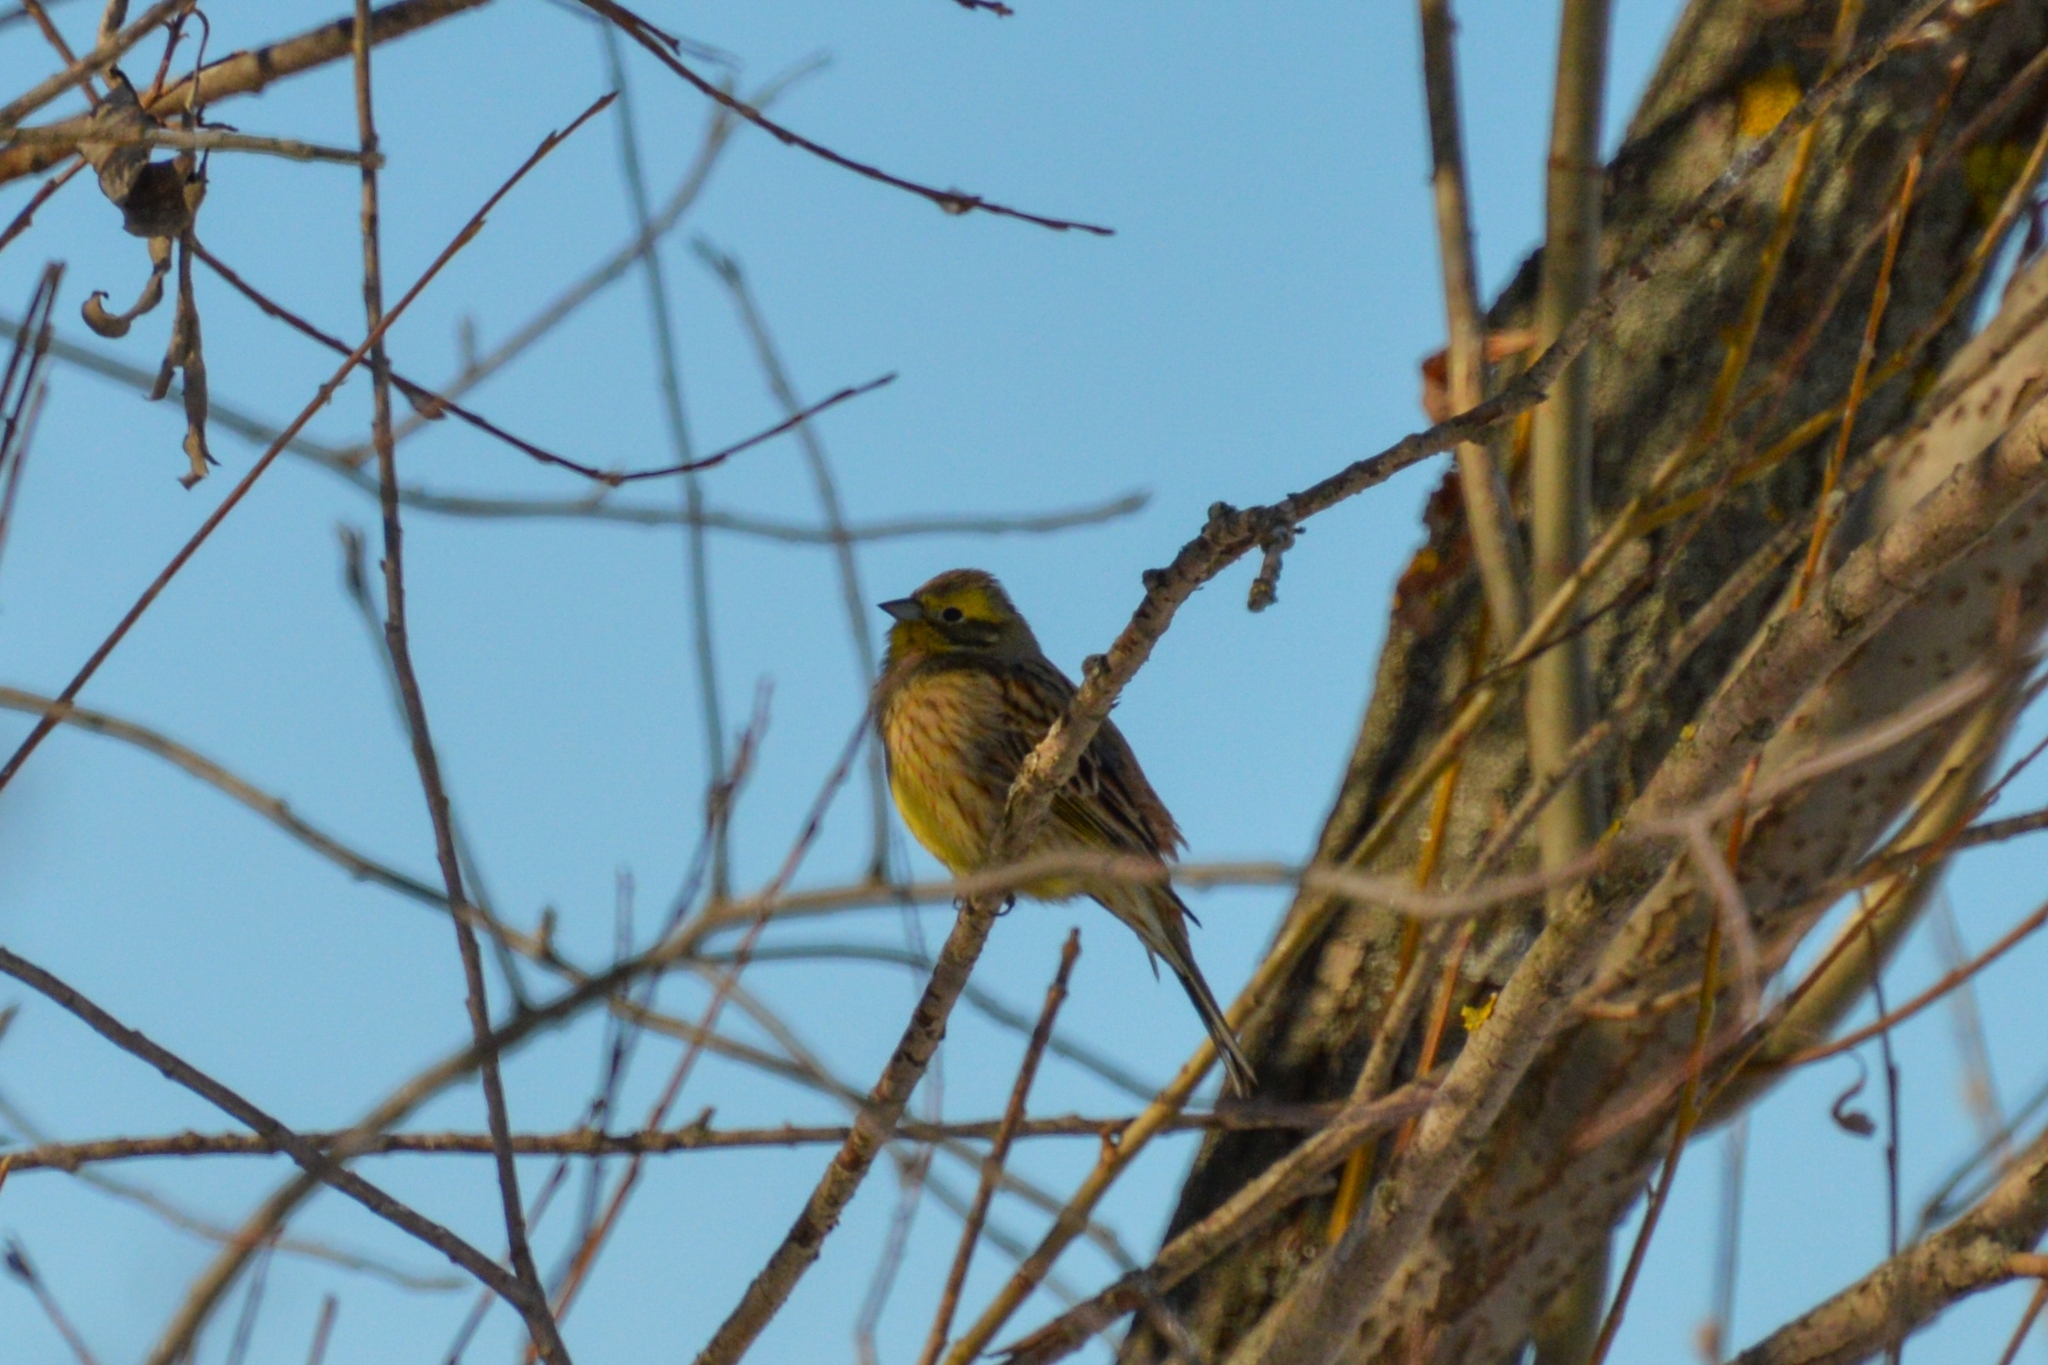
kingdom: Animalia
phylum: Chordata
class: Aves
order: Passeriformes
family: Emberizidae
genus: Emberiza
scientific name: Emberiza citrinella
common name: Yellowhammer
